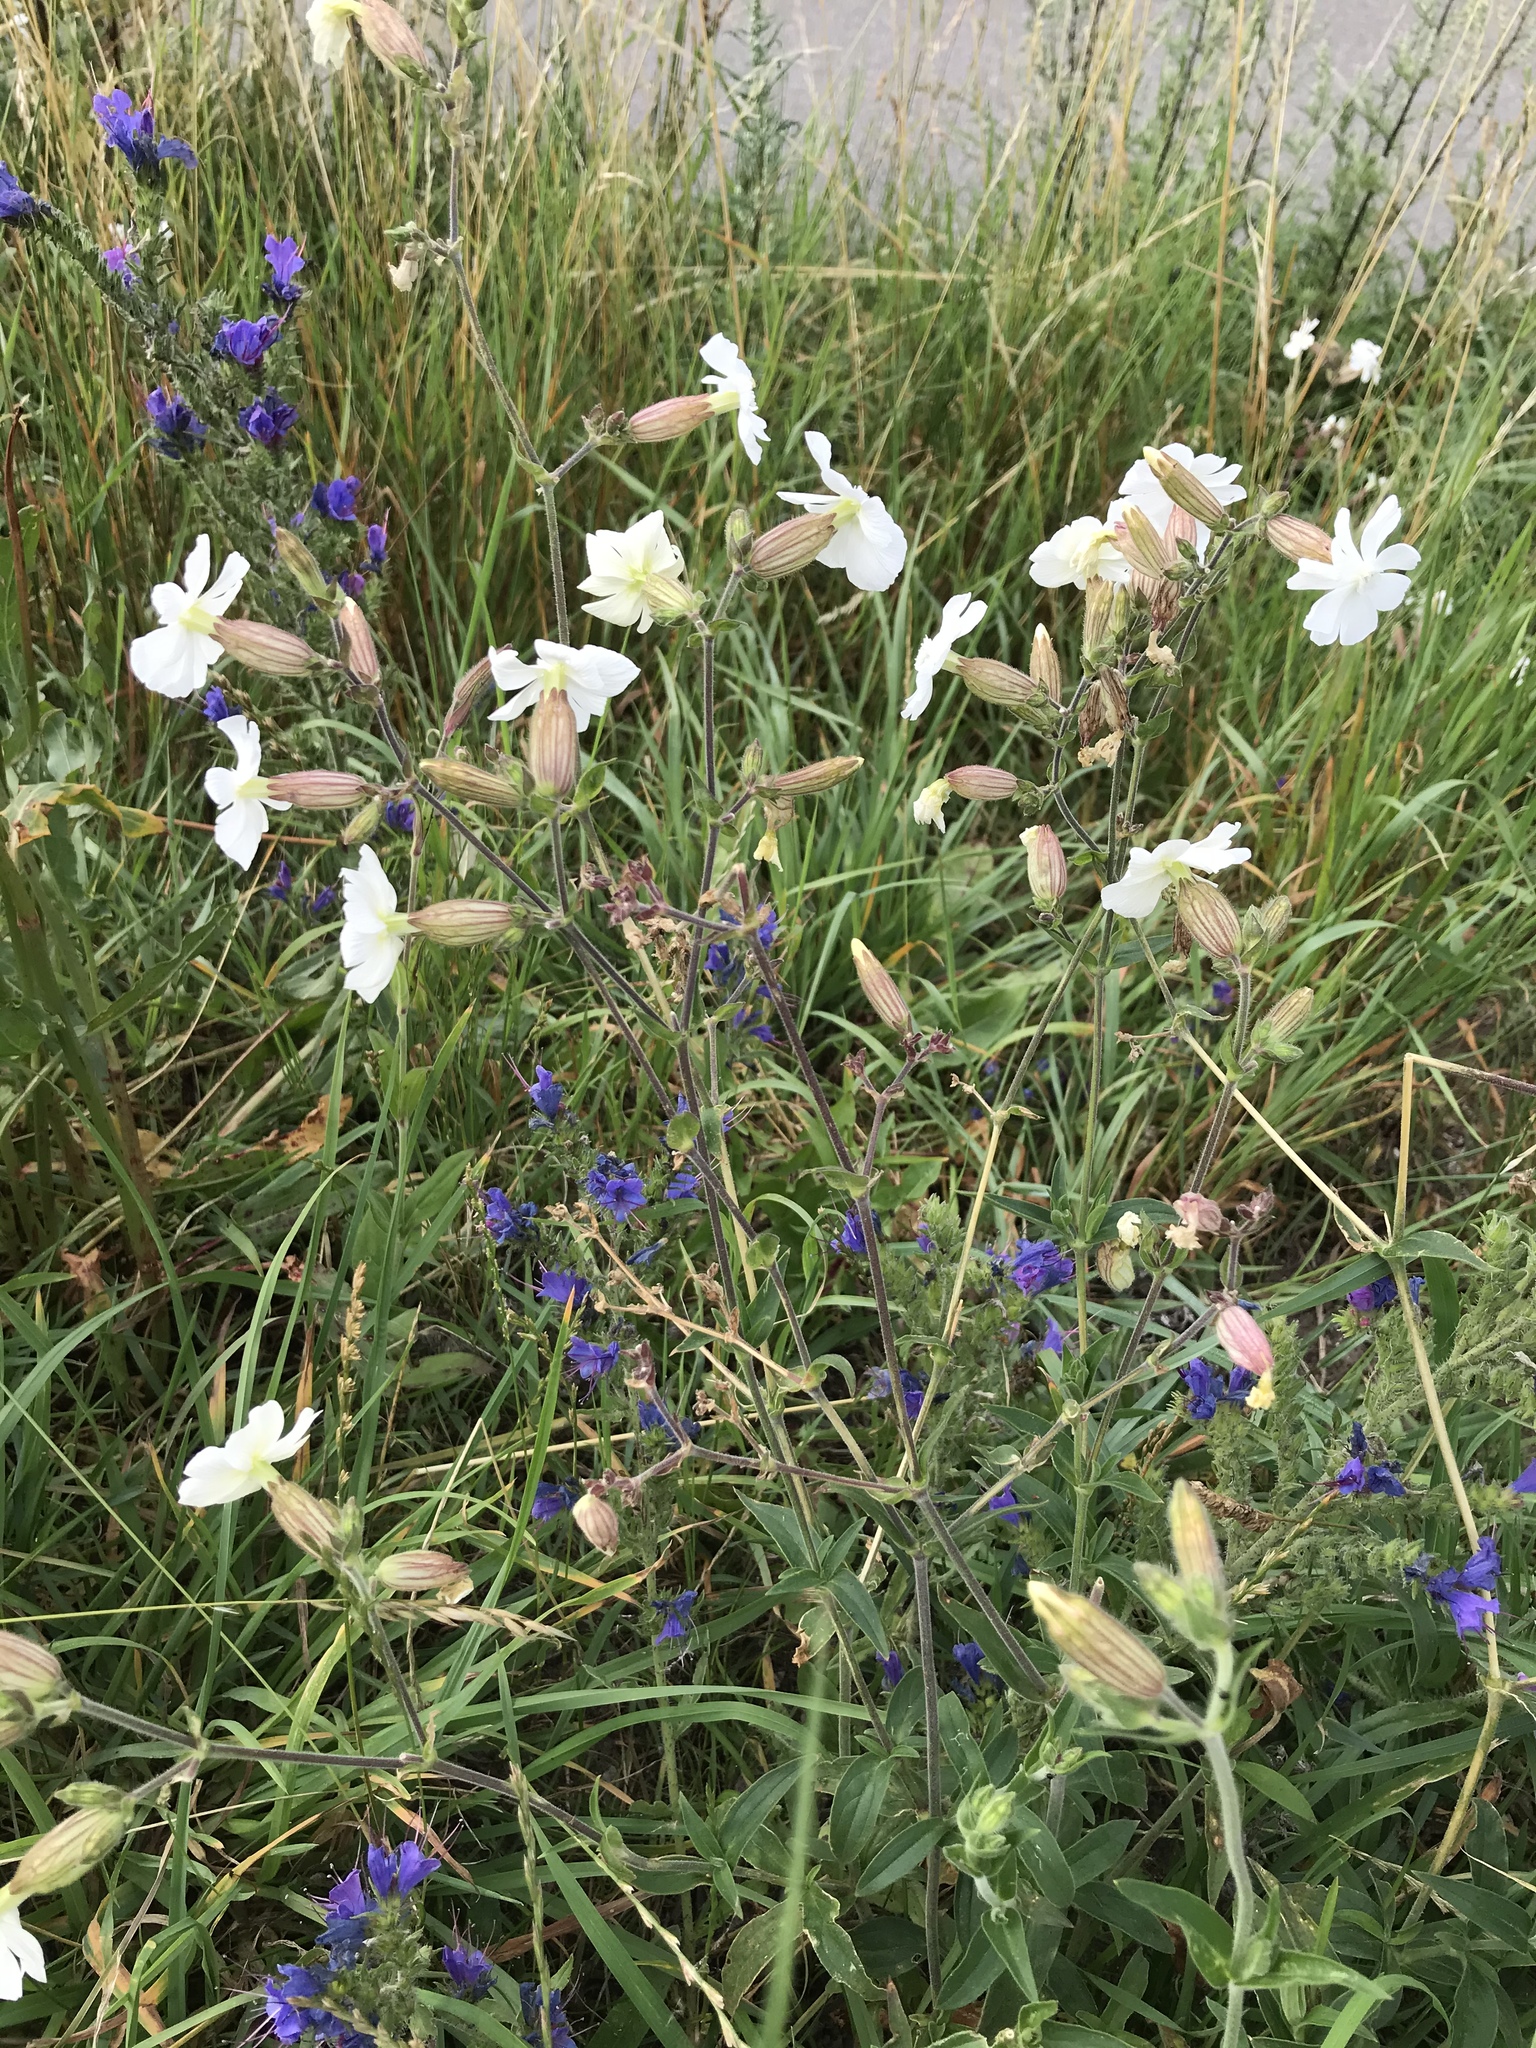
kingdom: Plantae
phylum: Tracheophyta
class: Magnoliopsida
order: Caryophyllales
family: Caryophyllaceae
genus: Silene
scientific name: Silene latifolia
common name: White campion
